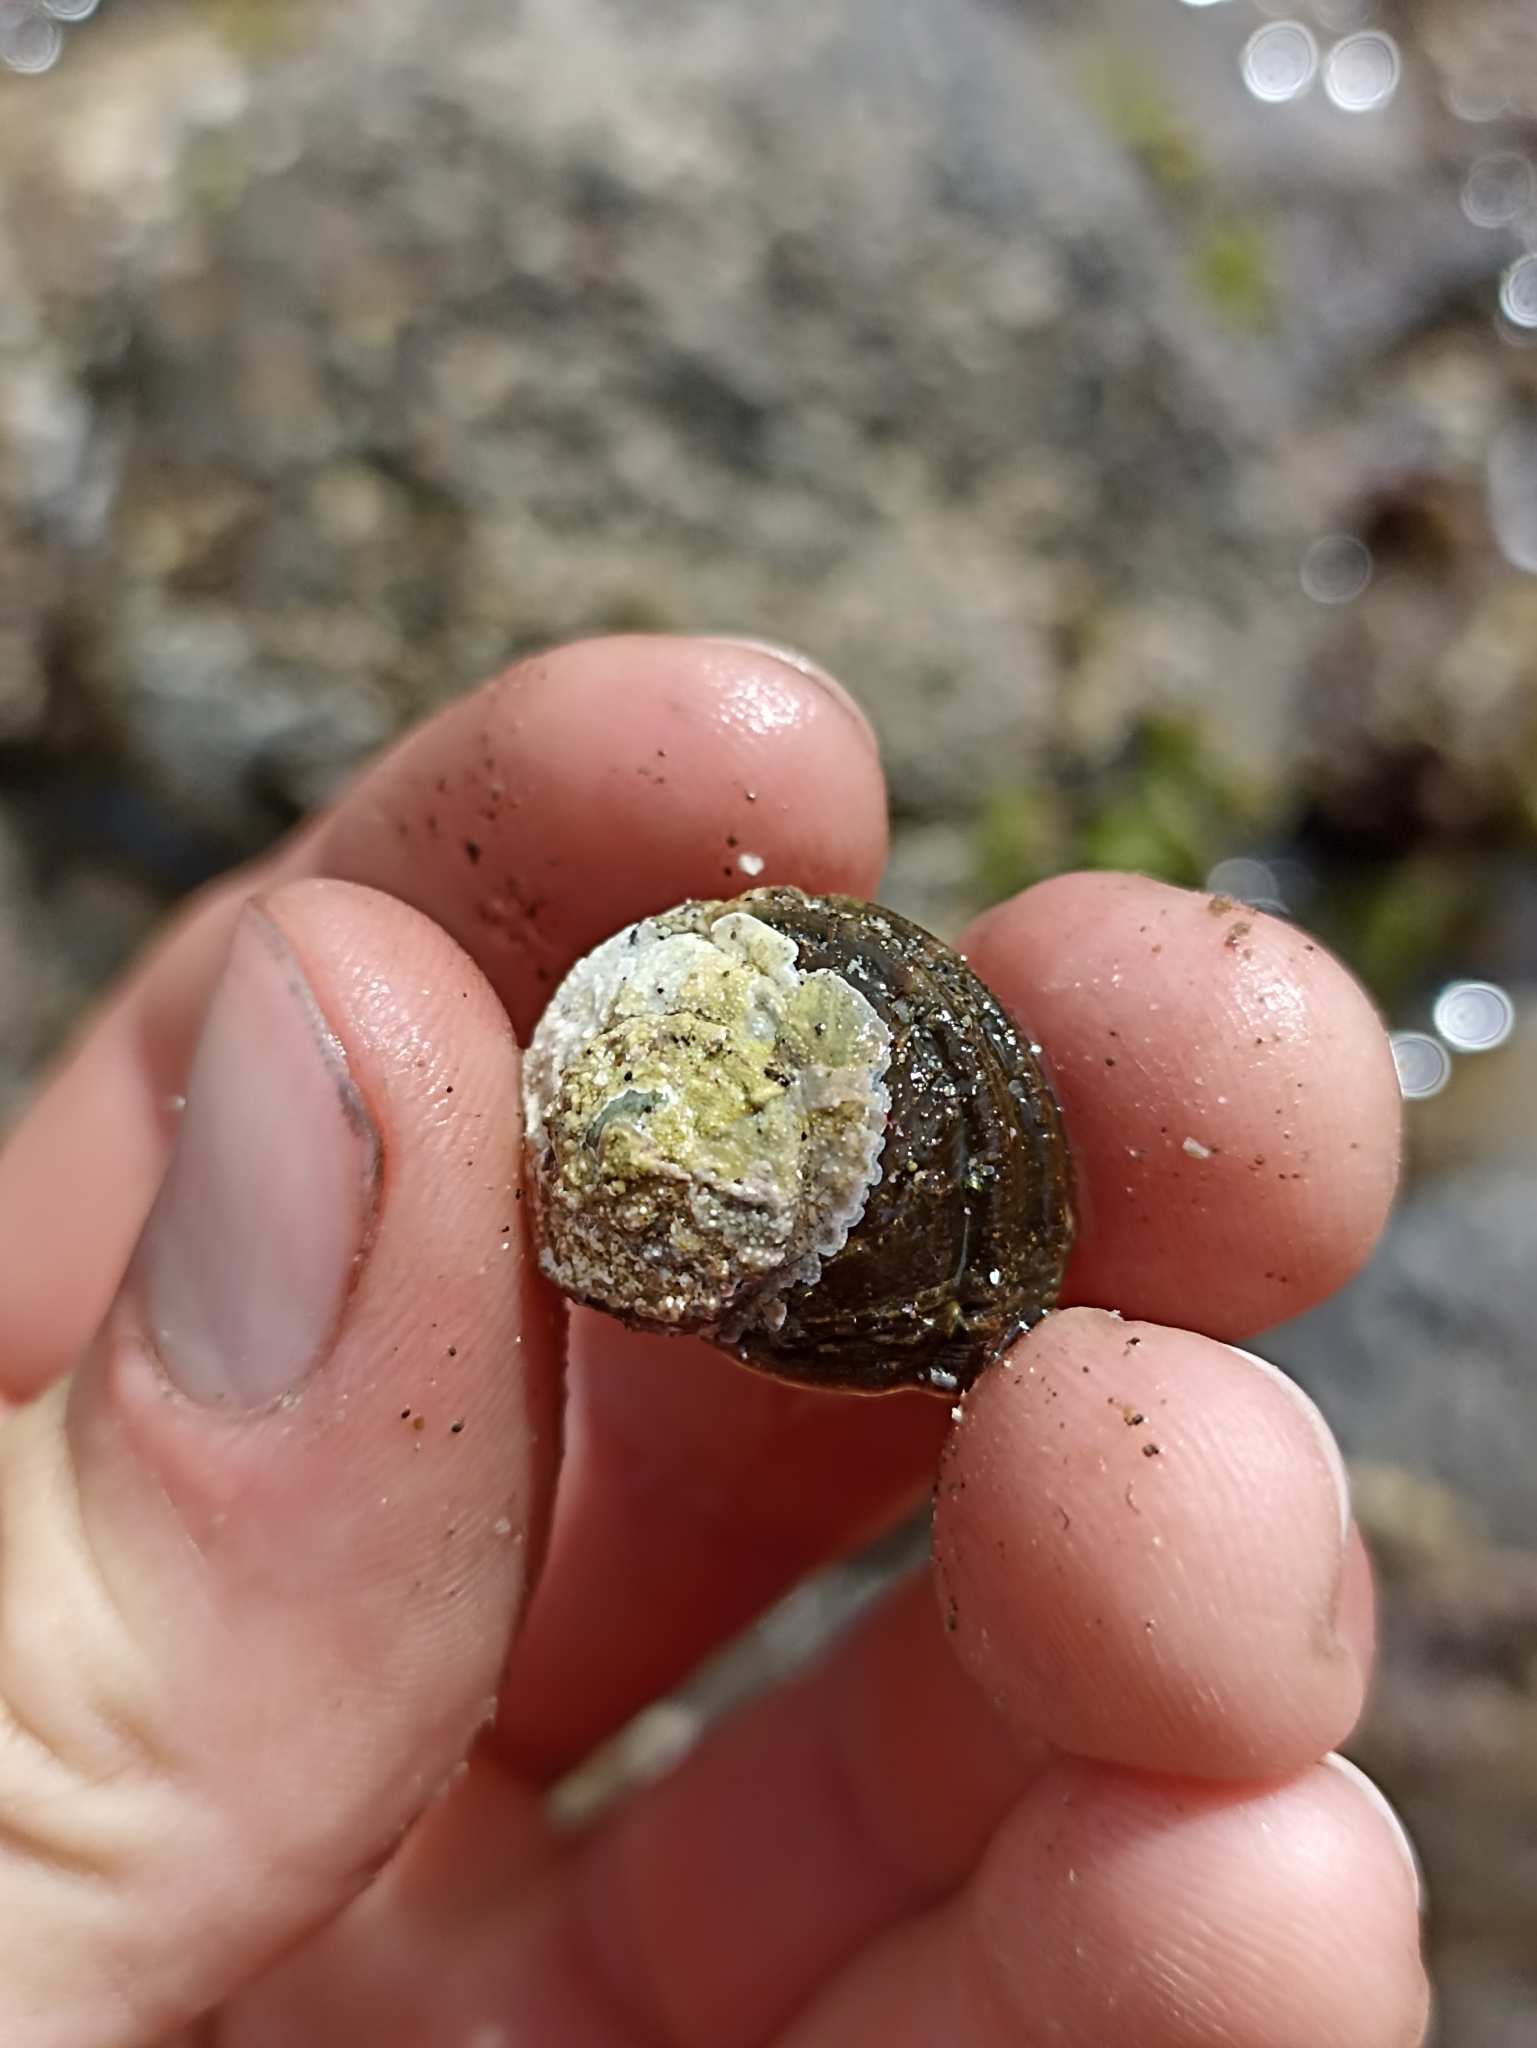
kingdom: Animalia
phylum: Mollusca
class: Gastropoda
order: Trochida
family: Turbinidae
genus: Lunella
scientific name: Lunella smaragda
